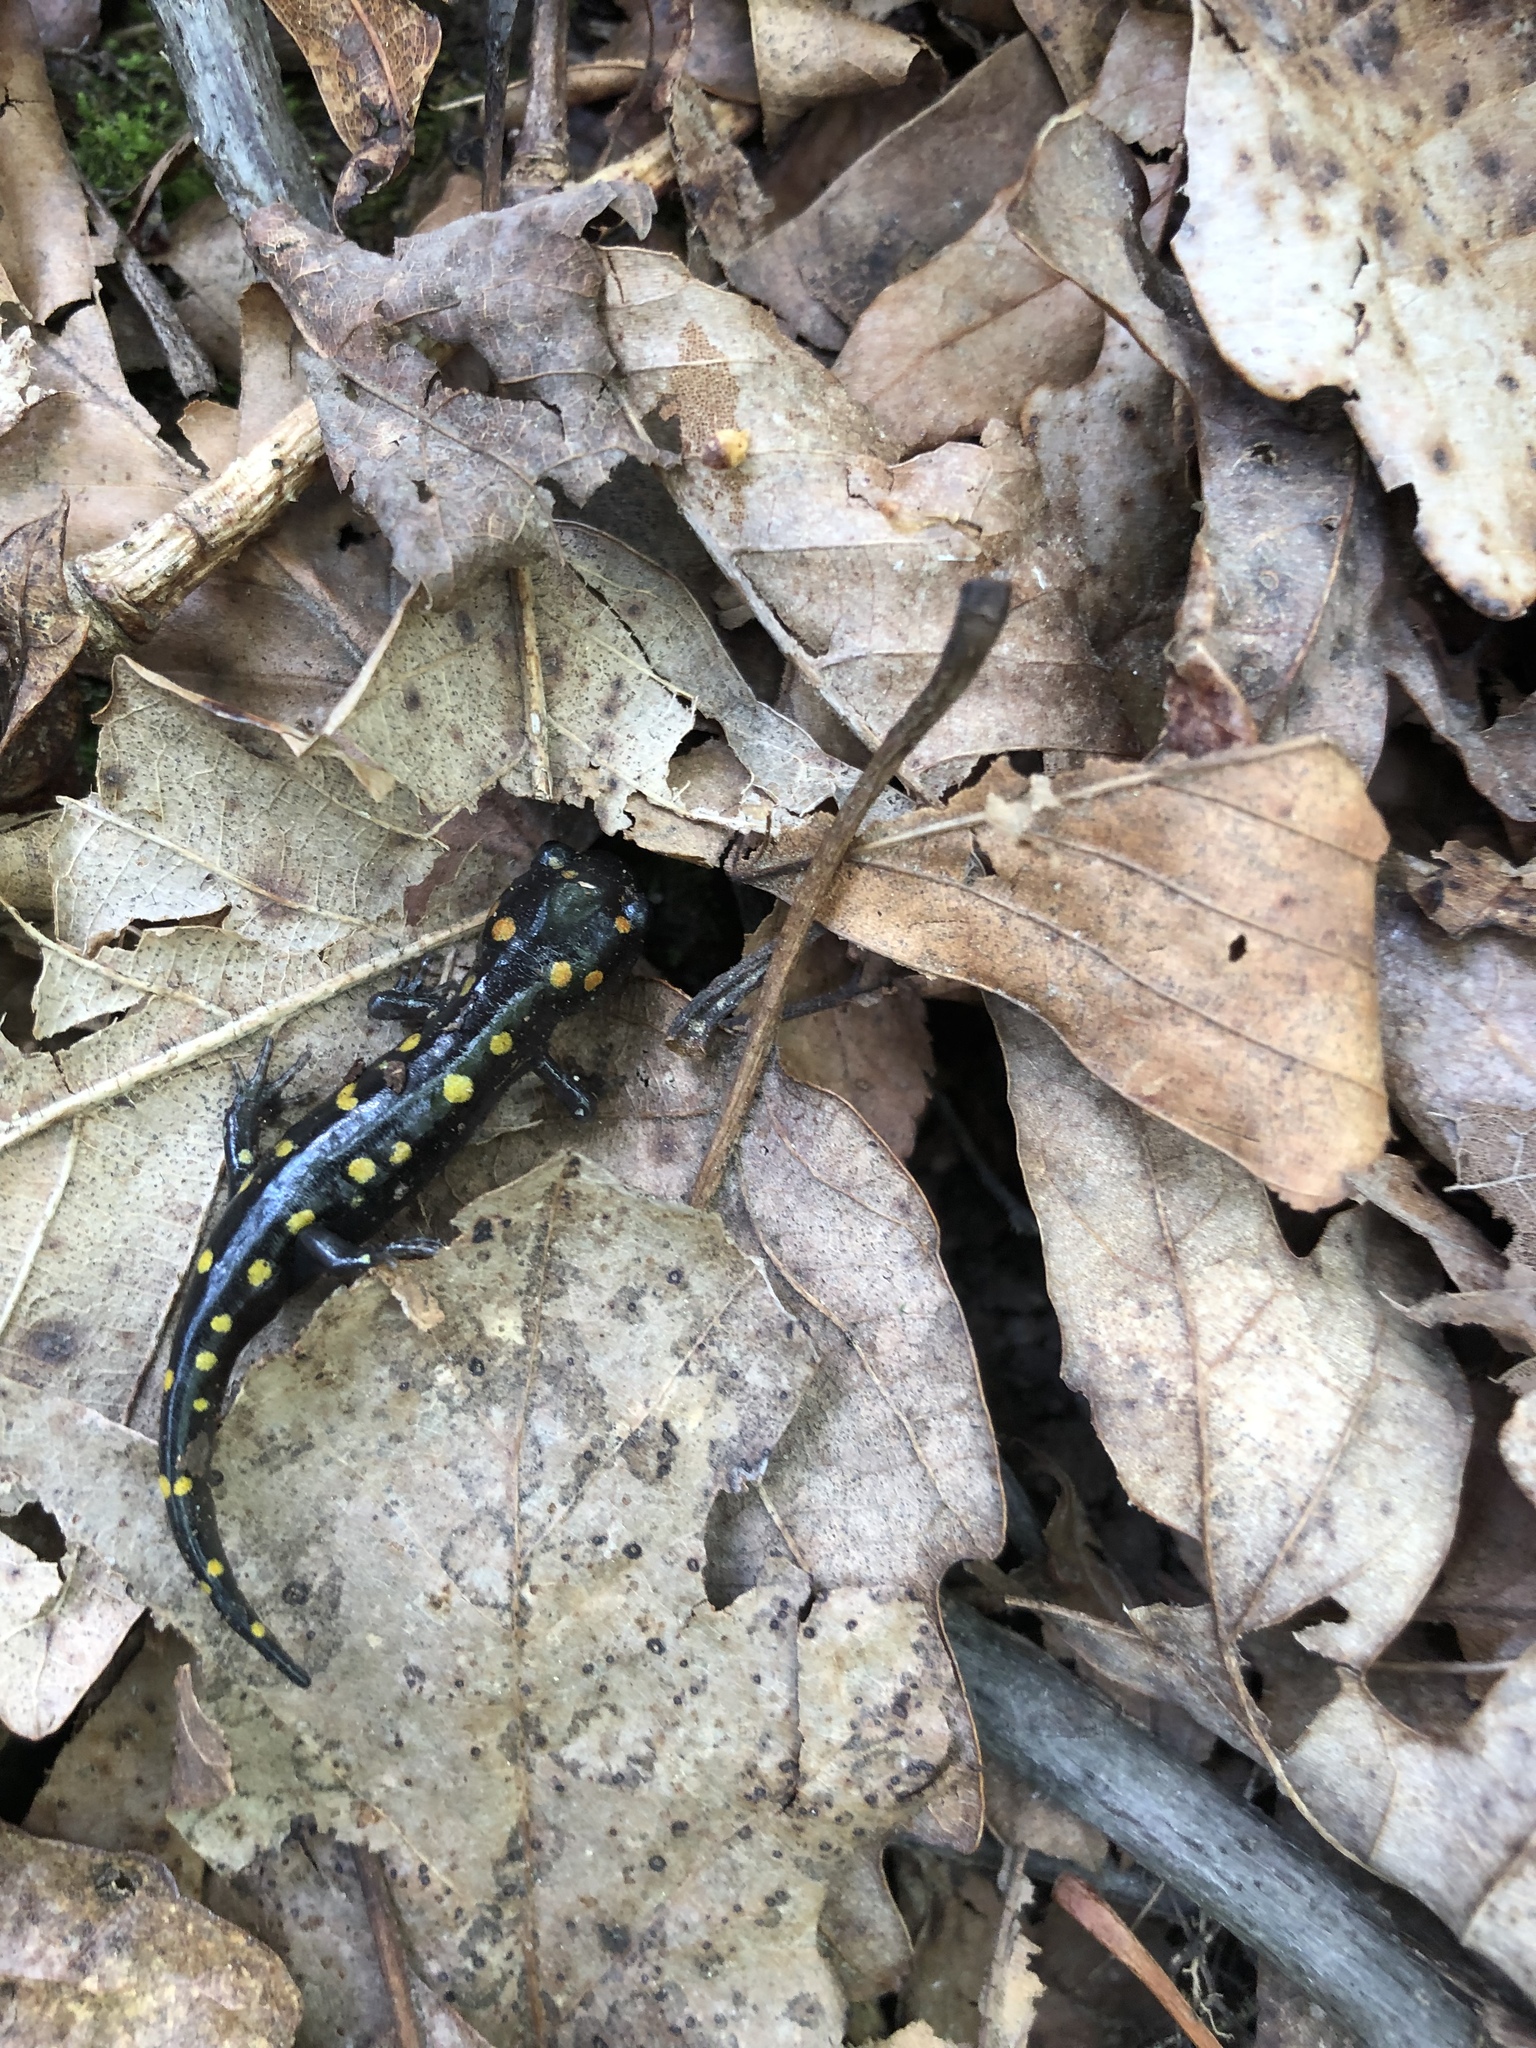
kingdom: Animalia
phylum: Chordata
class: Amphibia
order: Caudata
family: Ambystomatidae
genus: Ambystoma
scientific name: Ambystoma maculatum
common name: Spotted salamander
